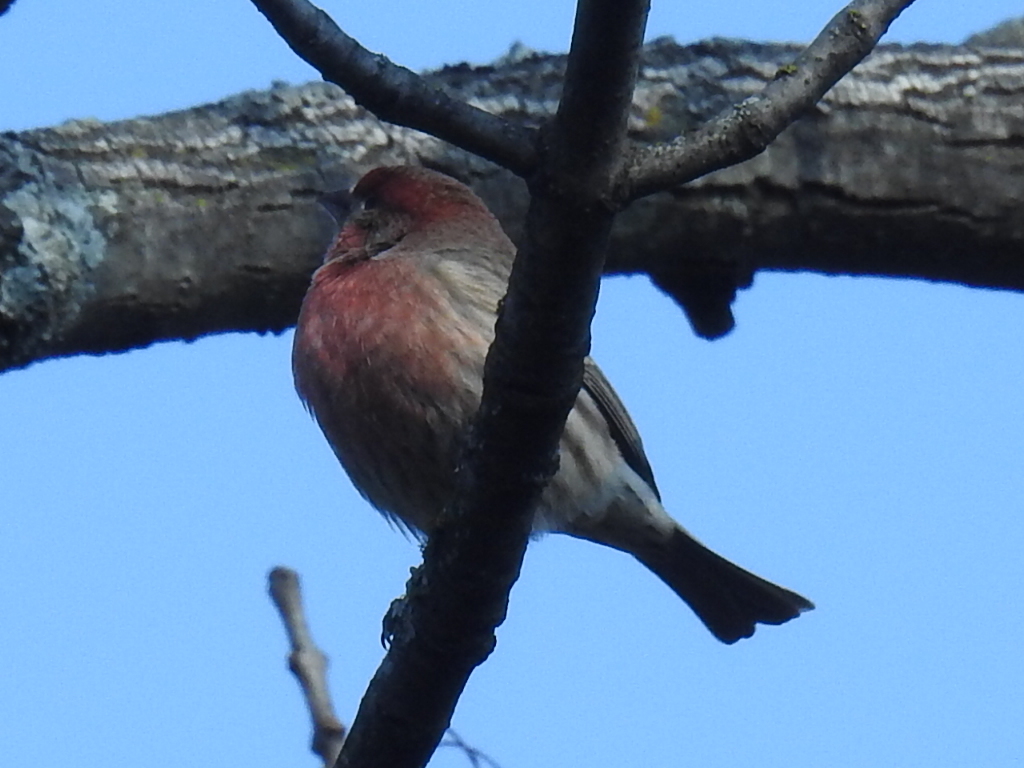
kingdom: Animalia
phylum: Chordata
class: Aves
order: Passeriformes
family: Fringillidae
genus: Haemorhous
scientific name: Haemorhous mexicanus
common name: House finch
